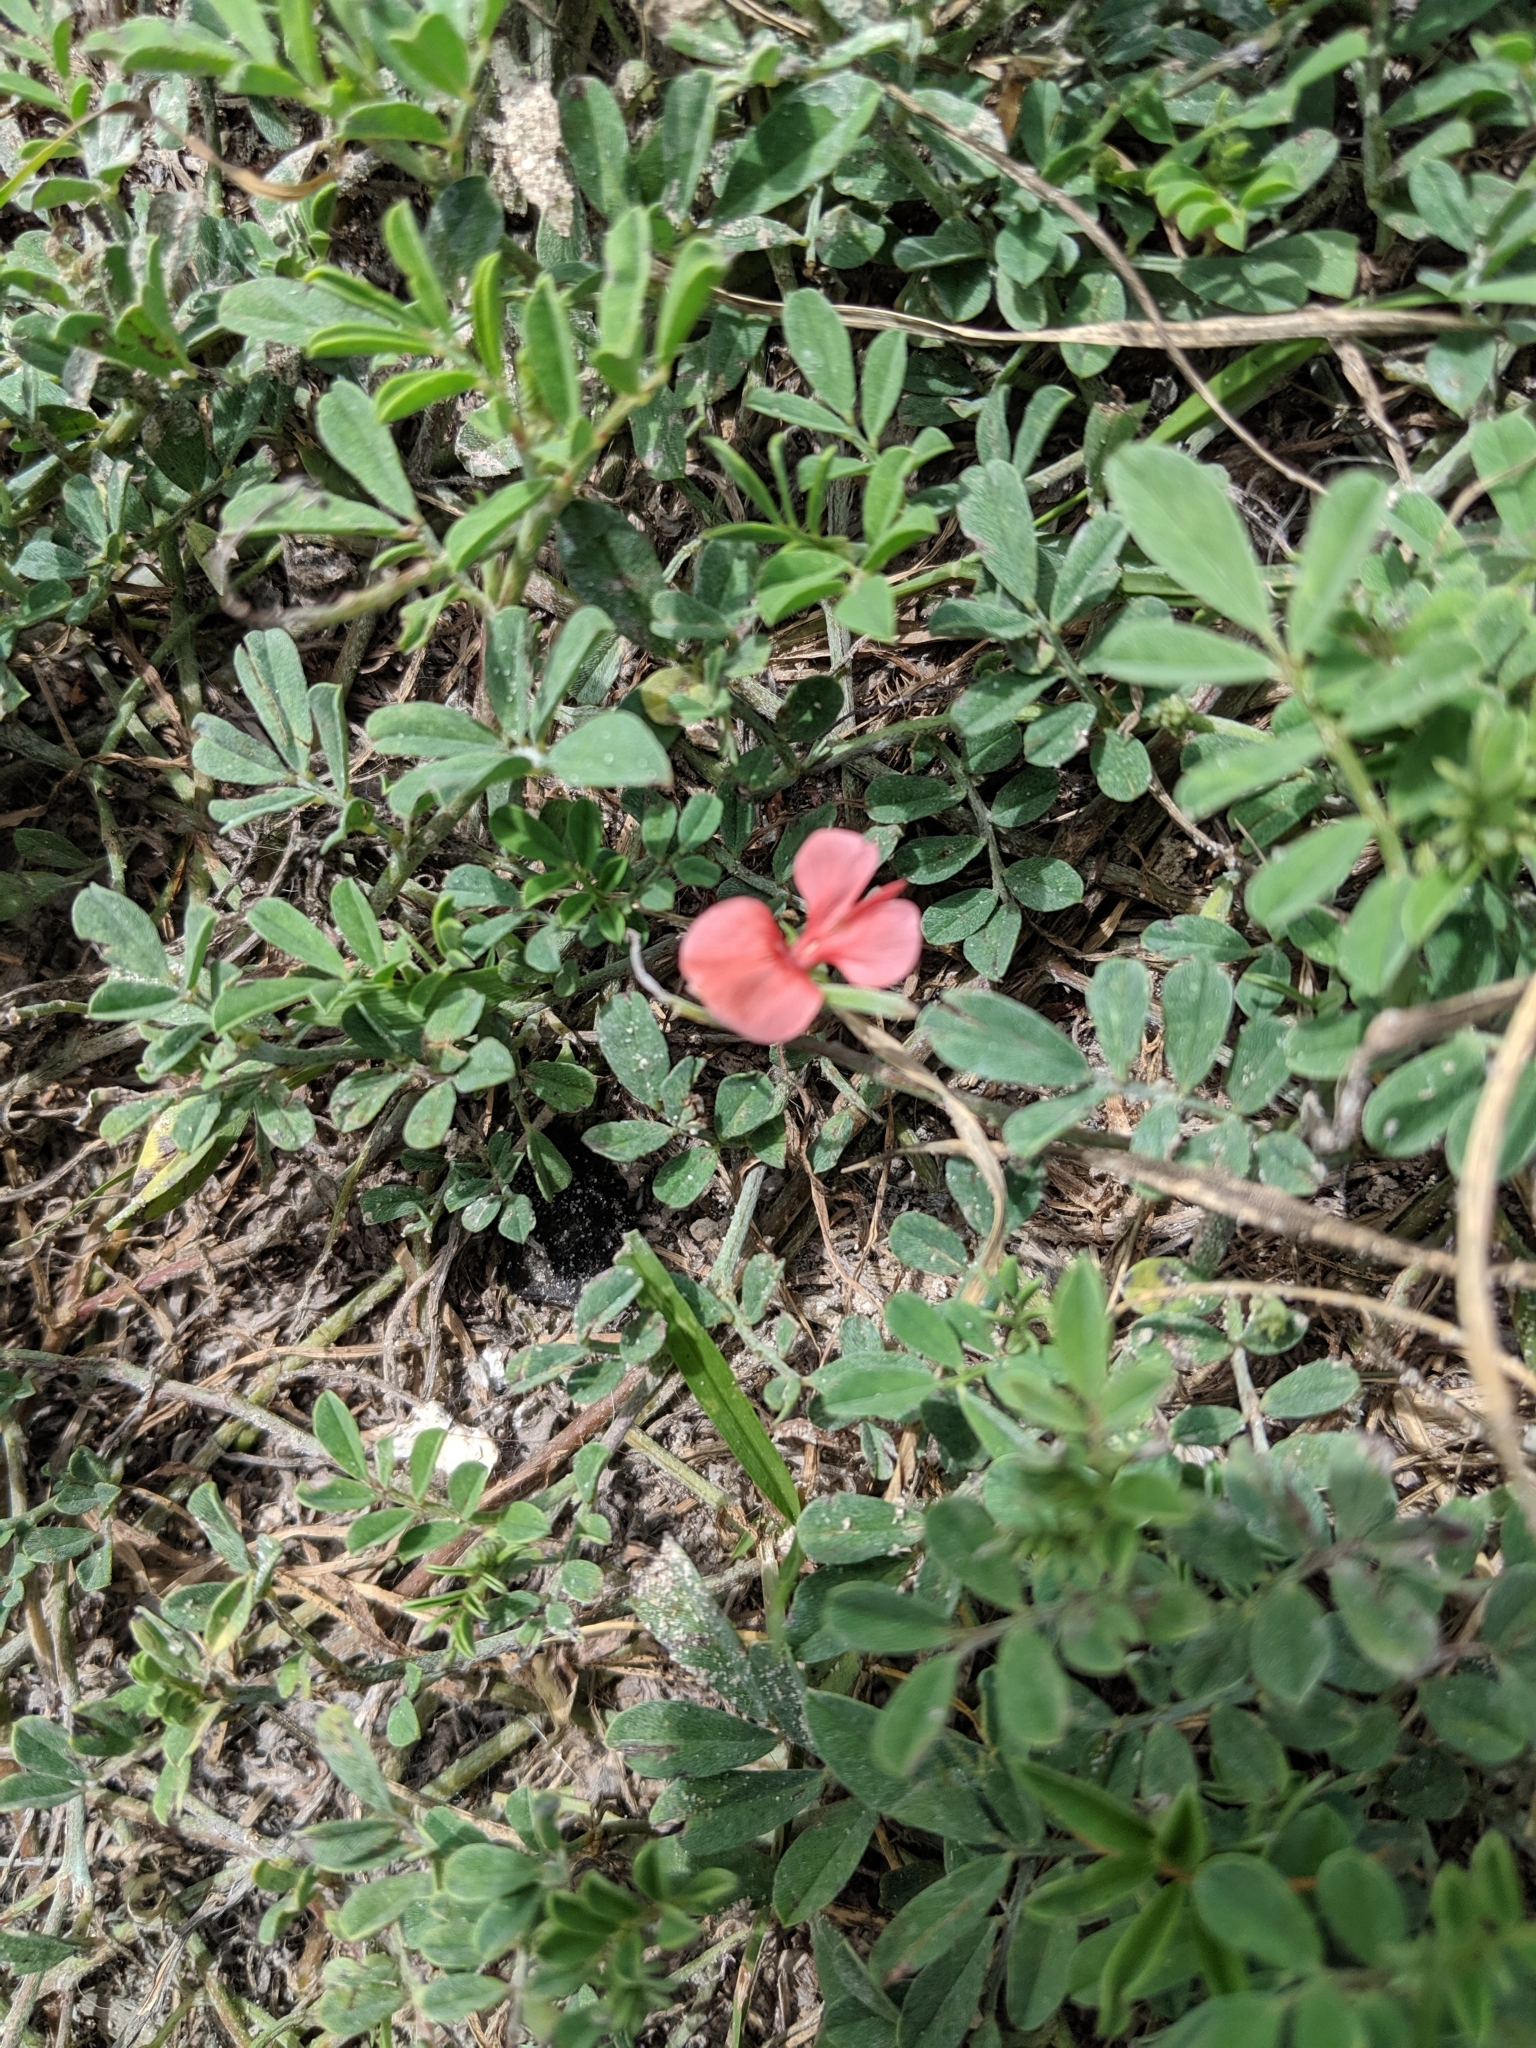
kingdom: Plantae
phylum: Tracheophyta
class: Magnoliopsida
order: Fabales
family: Fabaceae
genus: Indigofera
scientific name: Indigofera miniata
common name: Coast indigo
